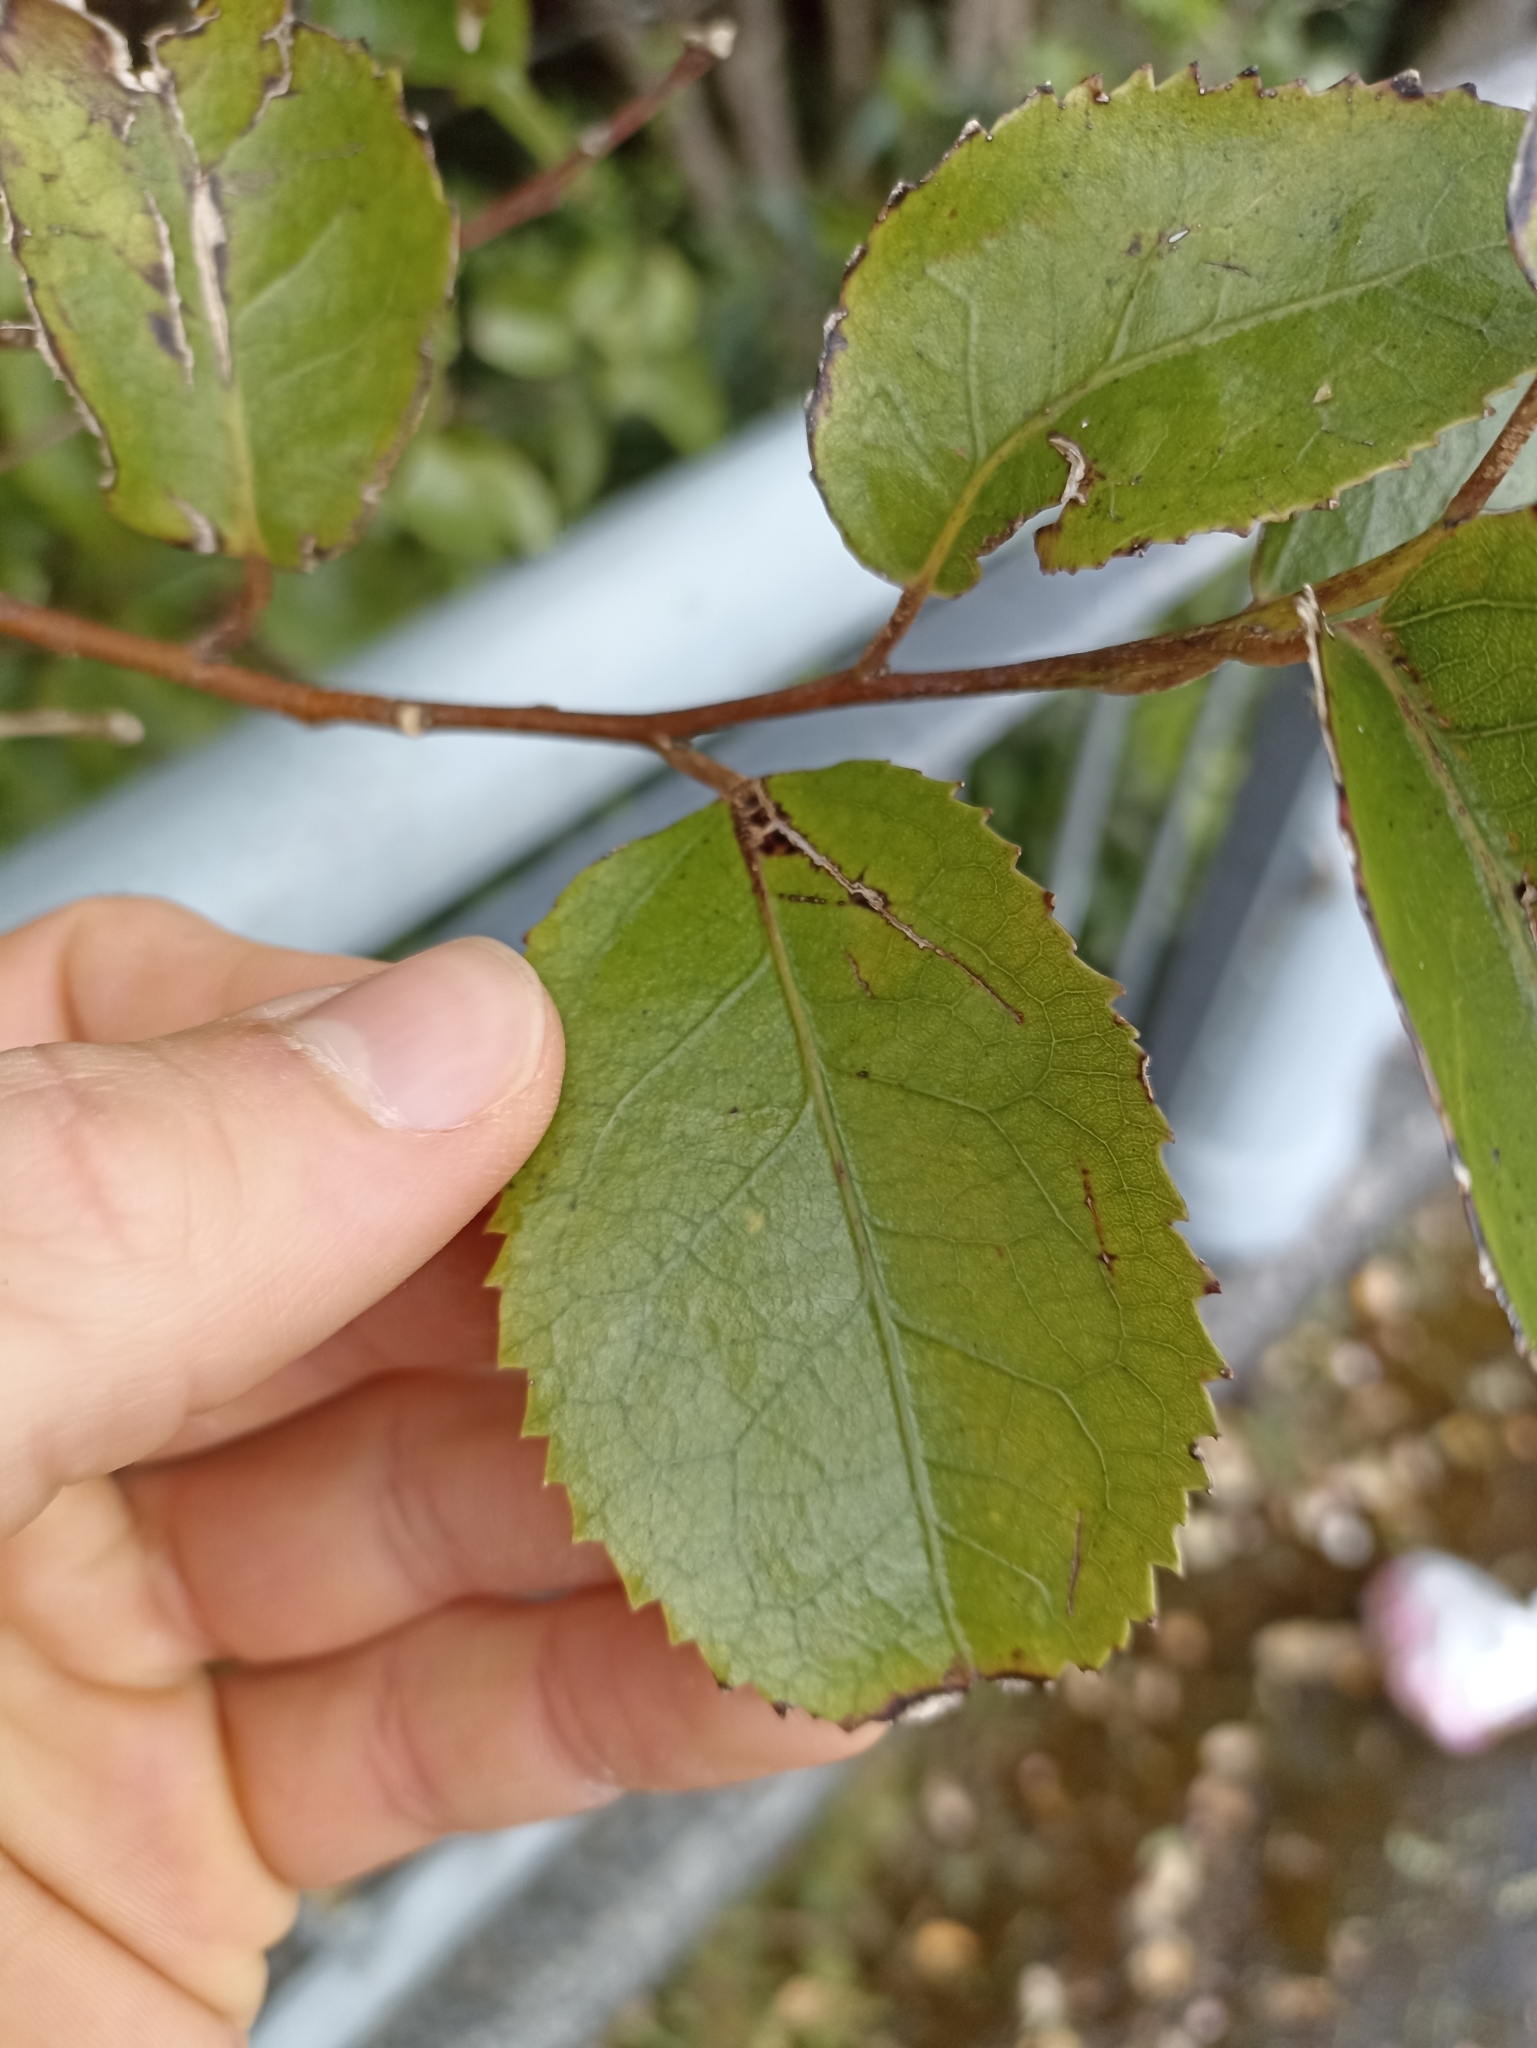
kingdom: Plantae
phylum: Tracheophyta
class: Magnoliopsida
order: Malvales
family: Malvaceae
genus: Hoheria
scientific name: Hoheria populnea
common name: Lacebark
